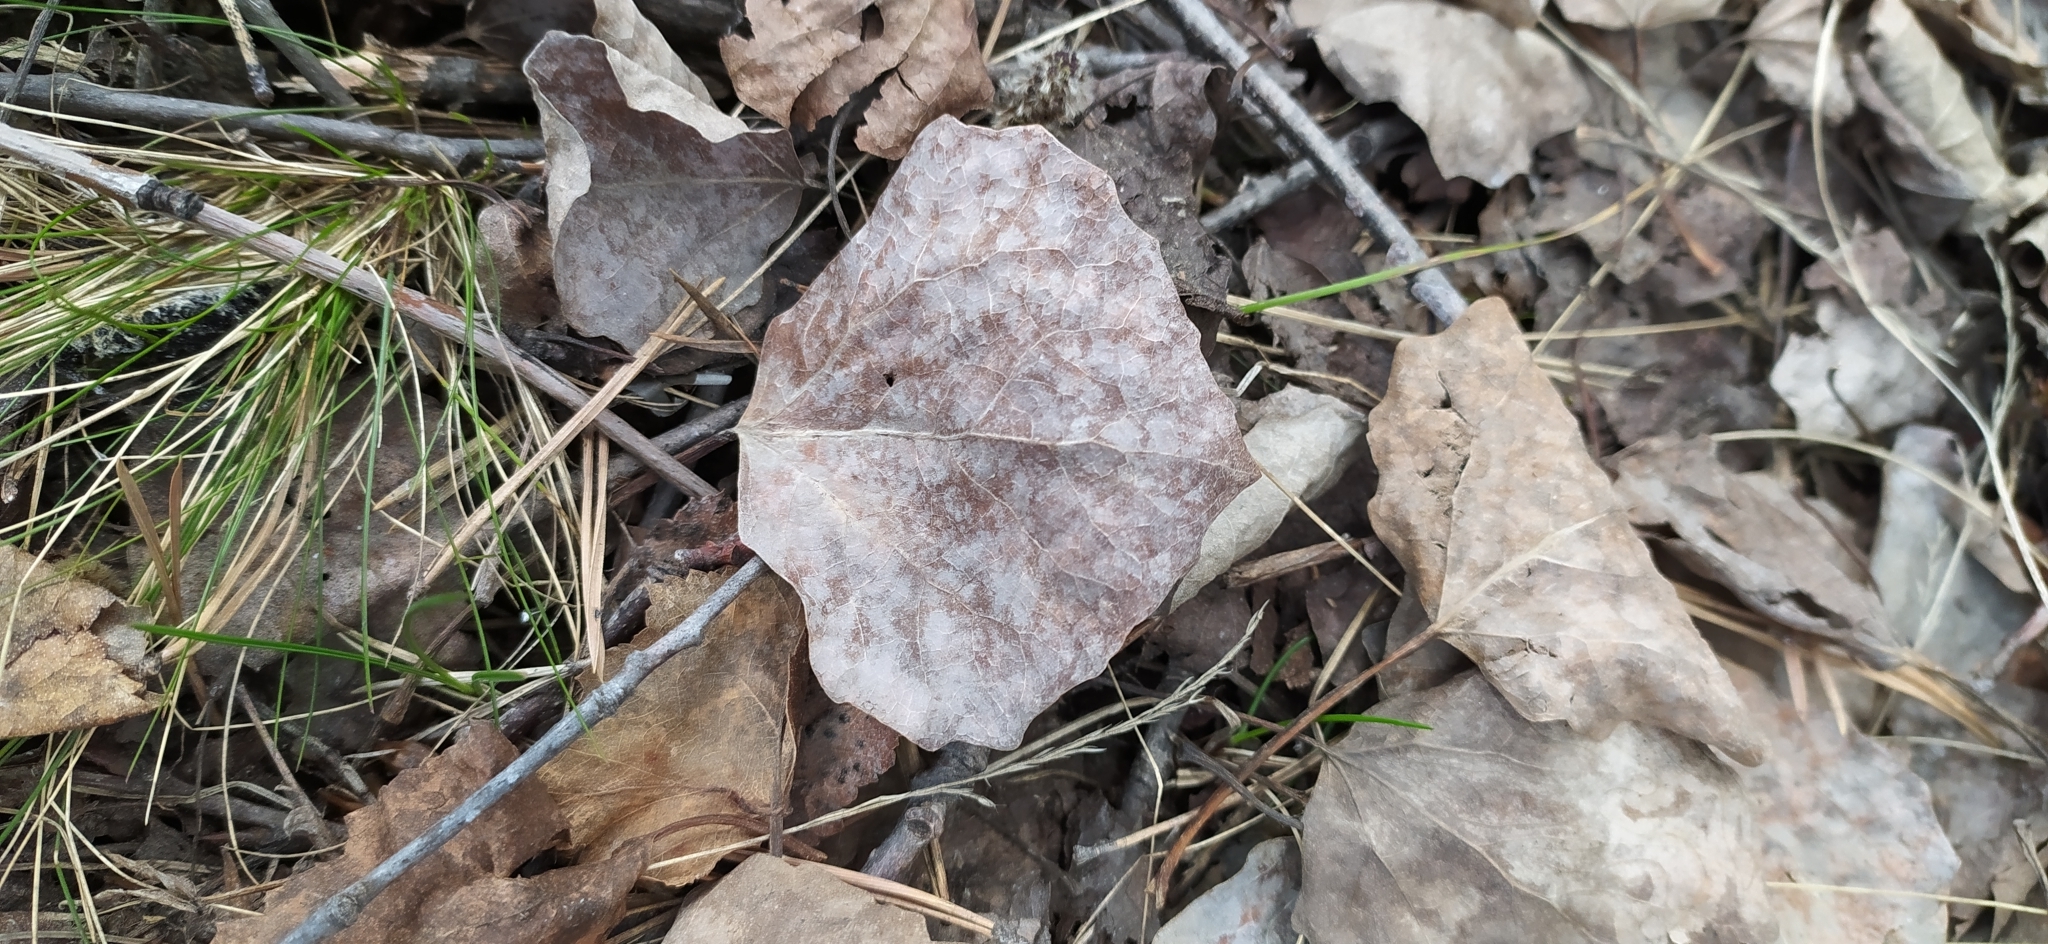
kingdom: Plantae
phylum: Tracheophyta
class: Magnoliopsida
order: Malpighiales
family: Salicaceae
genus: Populus
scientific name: Populus tremula
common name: European aspen
